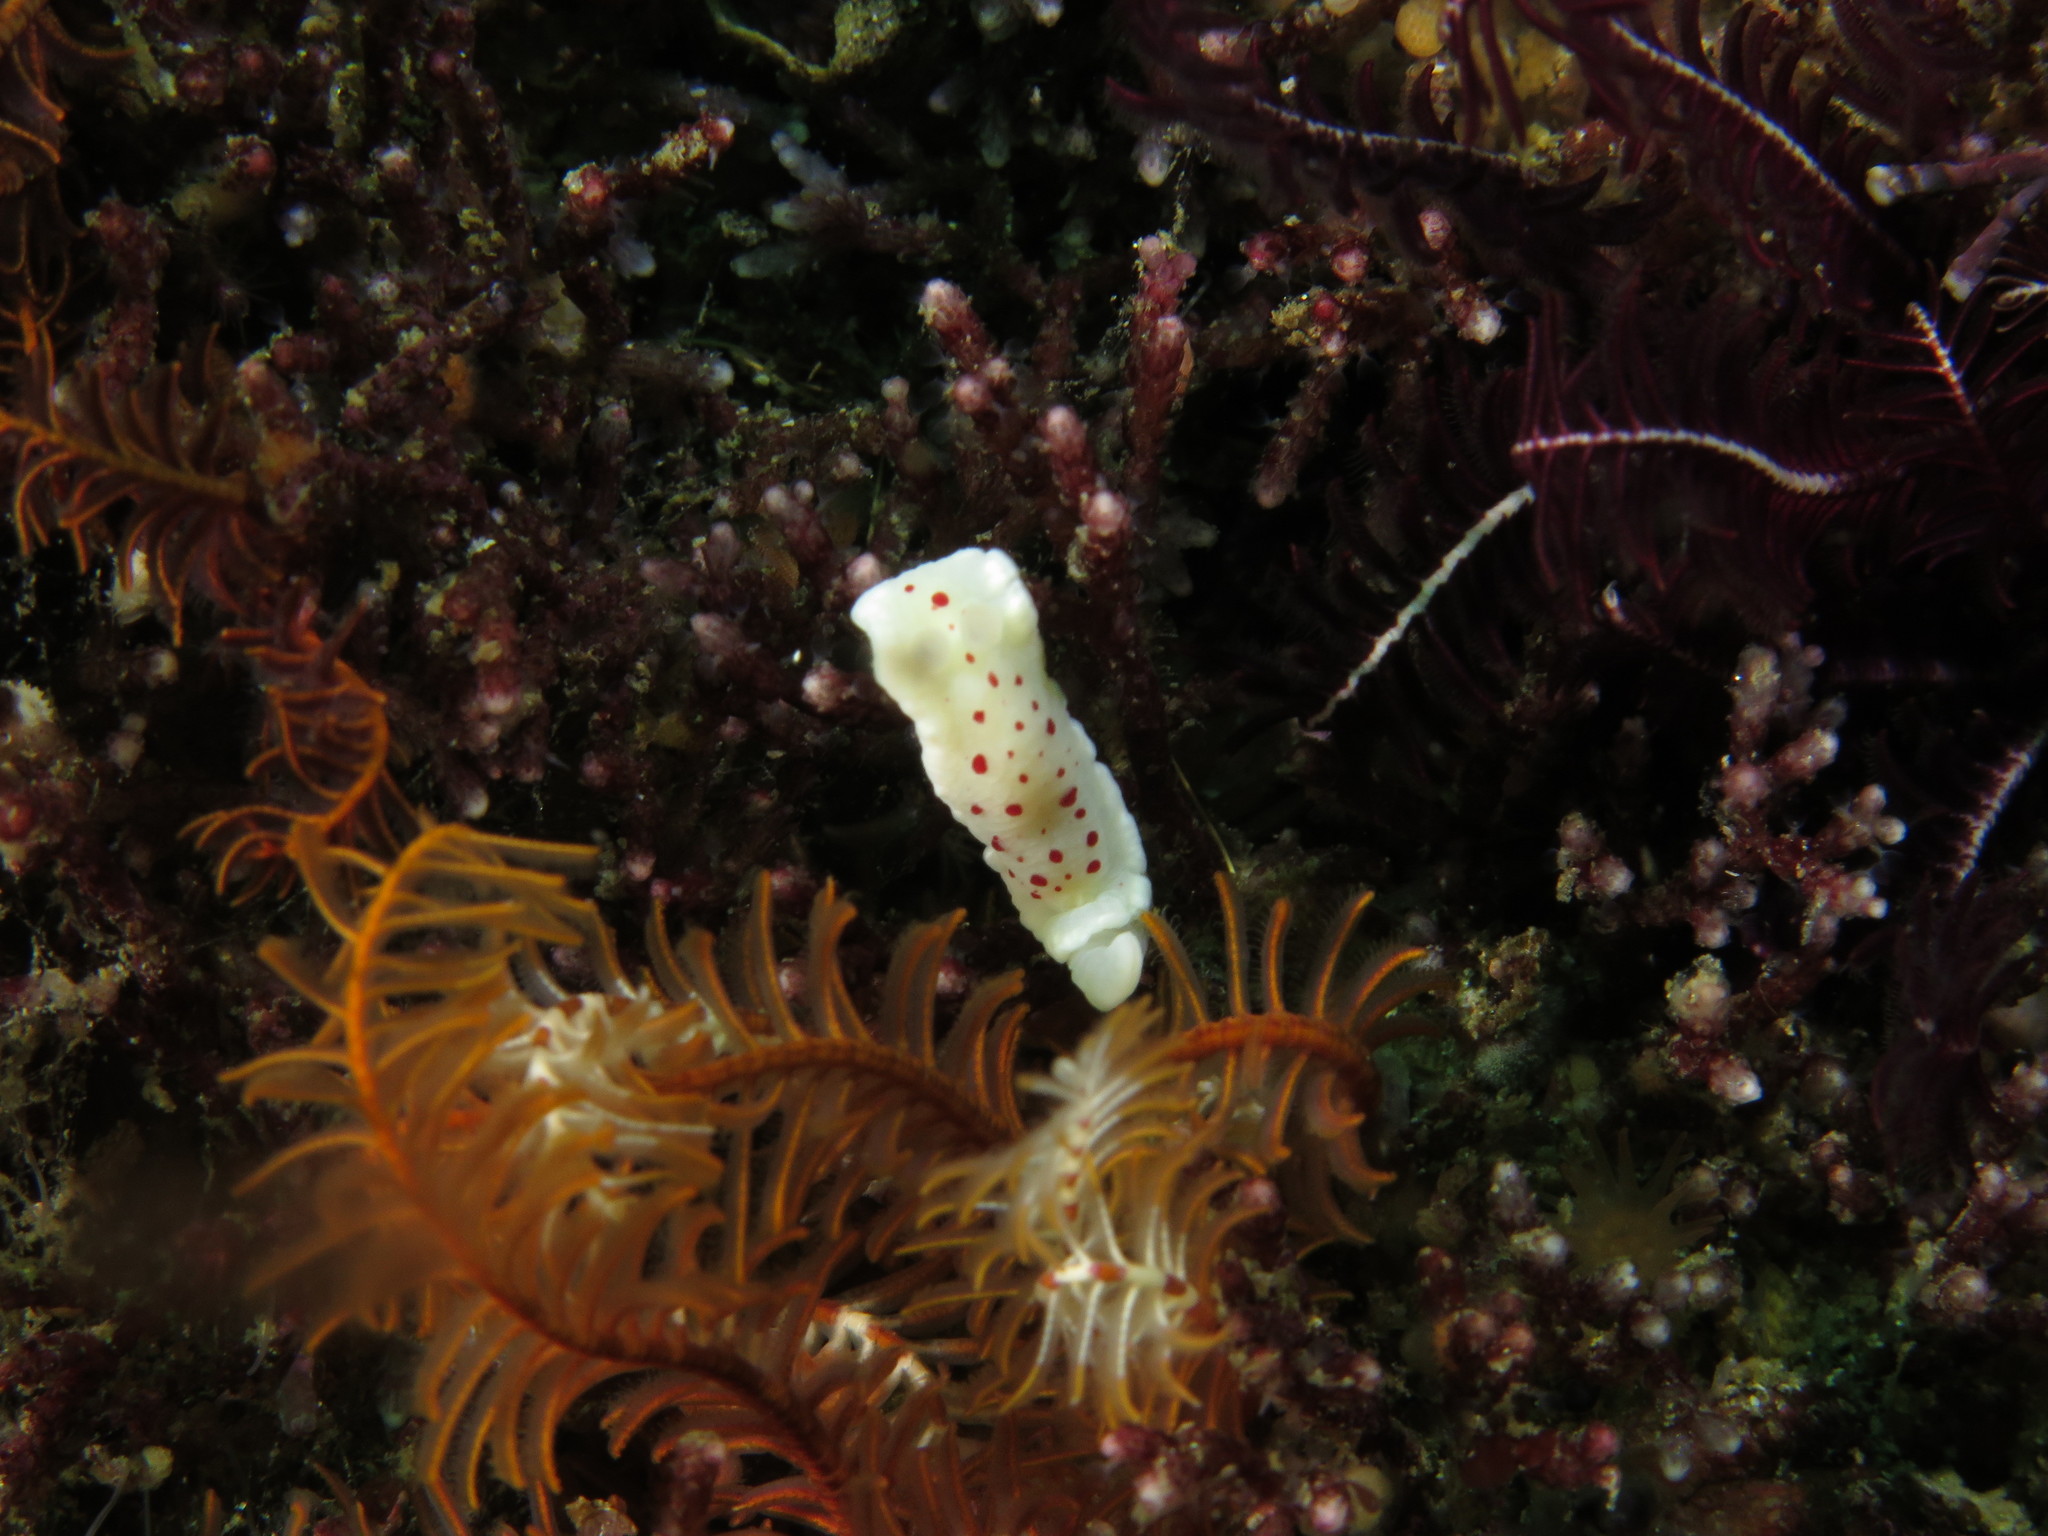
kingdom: Animalia
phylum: Mollusca
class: Gastropoda
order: Nudibranchia
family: Chromodorididae
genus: Goniobranchus
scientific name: Goniobranchus heatherae
